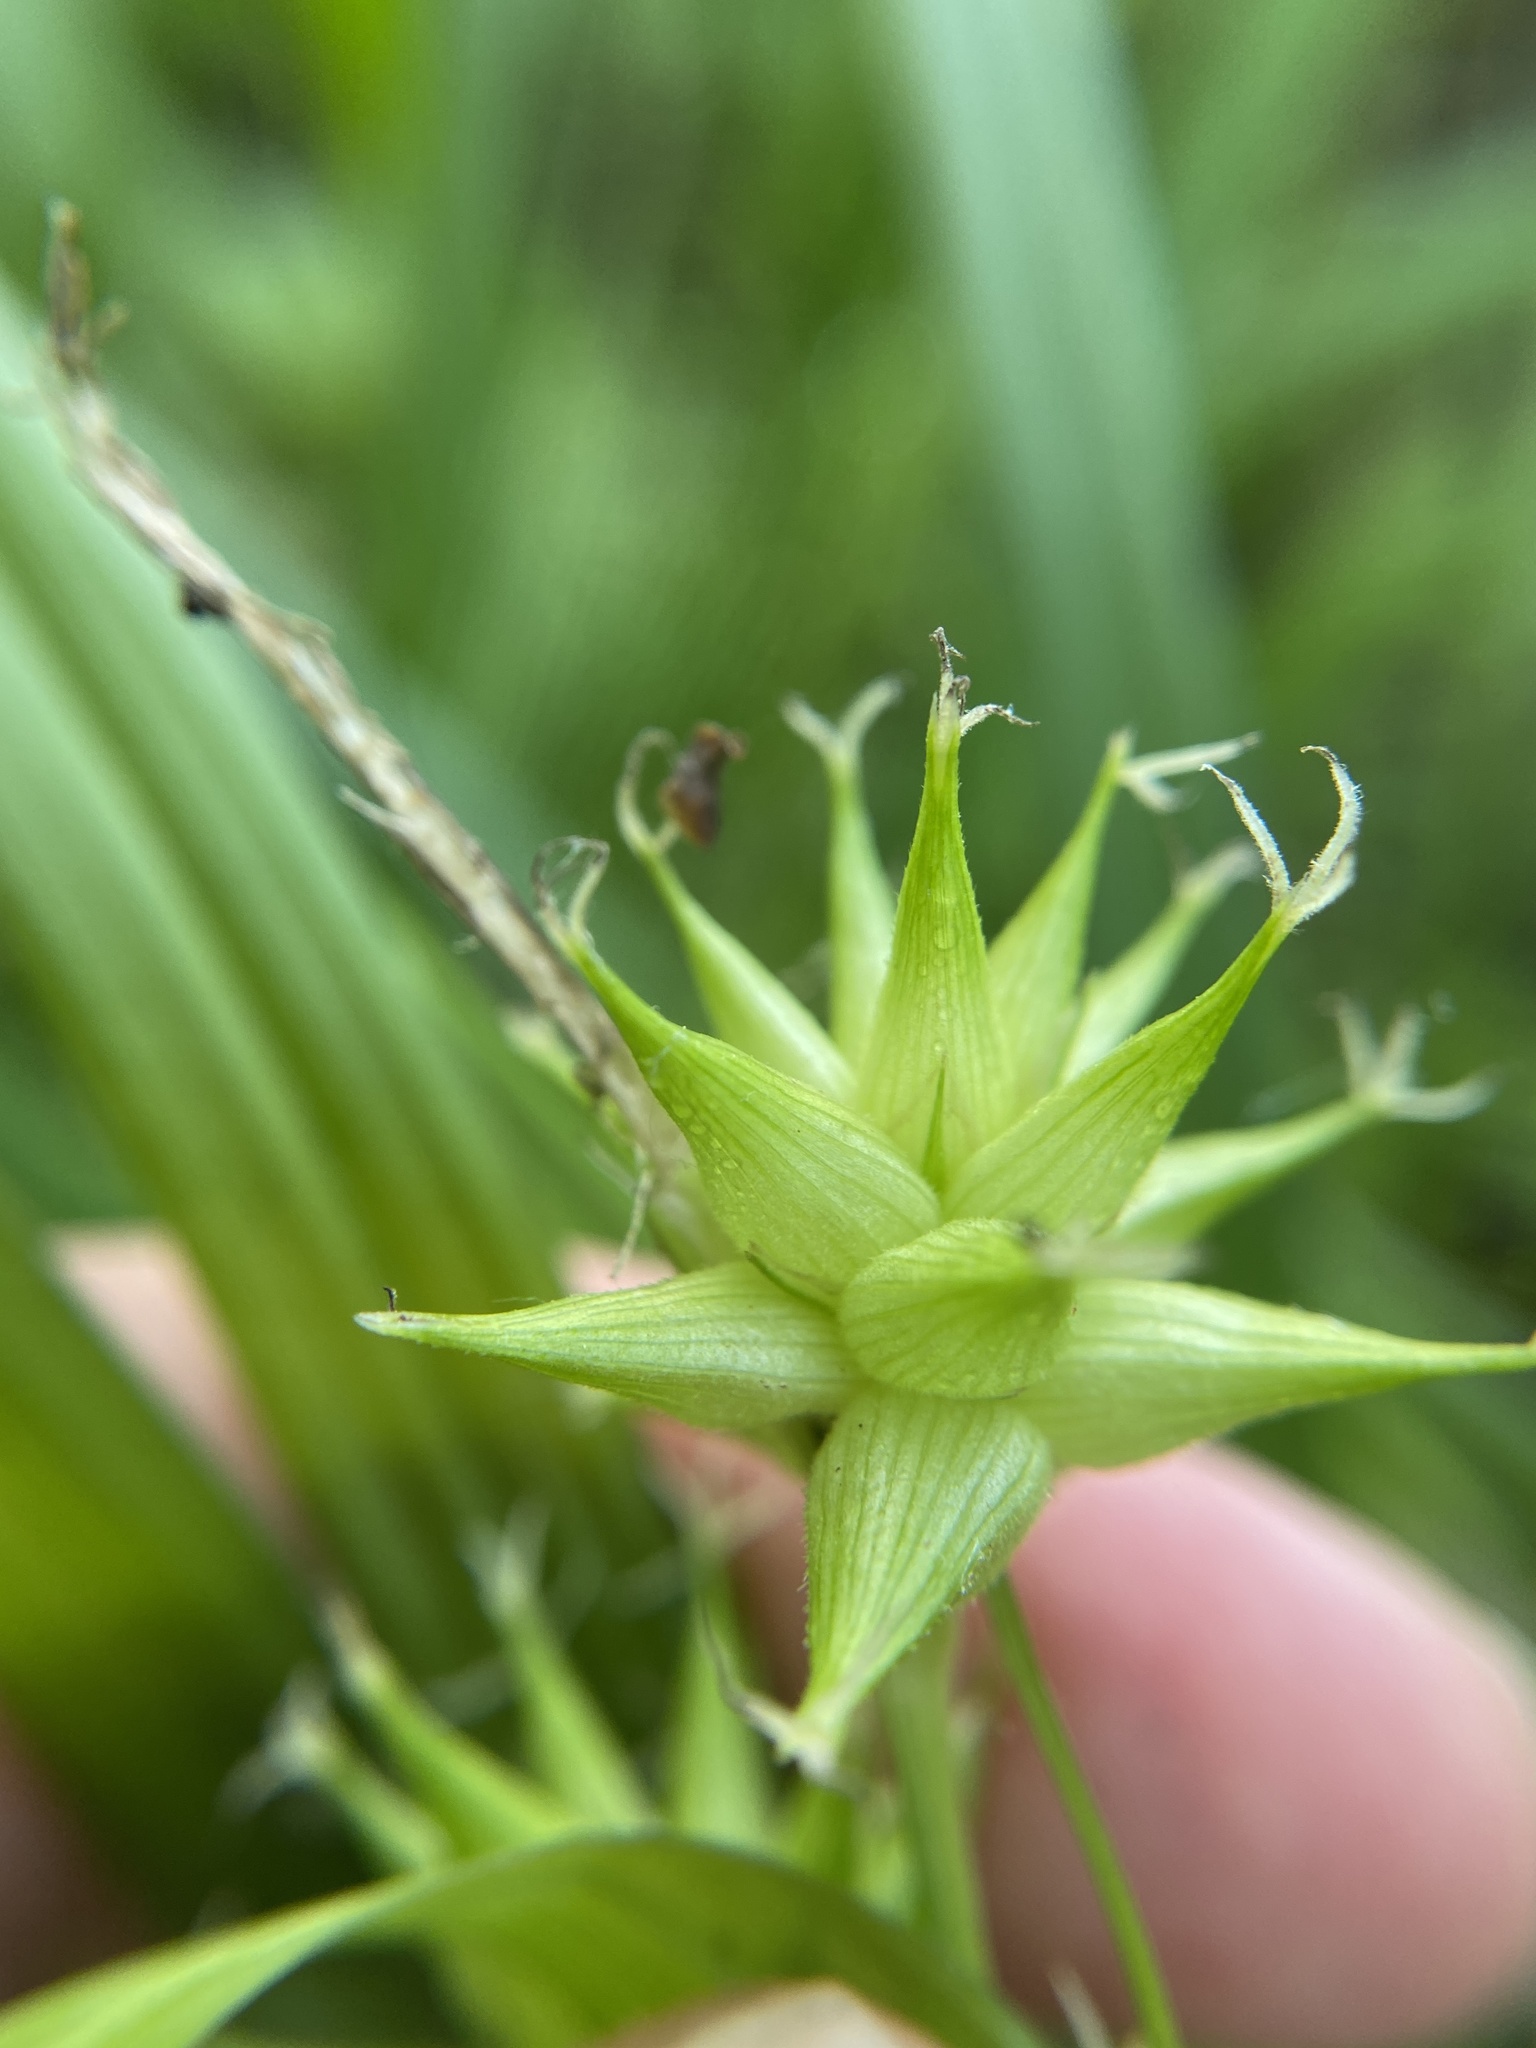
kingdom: Plantae
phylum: Tracheophyta
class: Liliopsida
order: Poales
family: Cyperaceae
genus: Carex
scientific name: Carex grayi
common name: Asa gray's sedge
